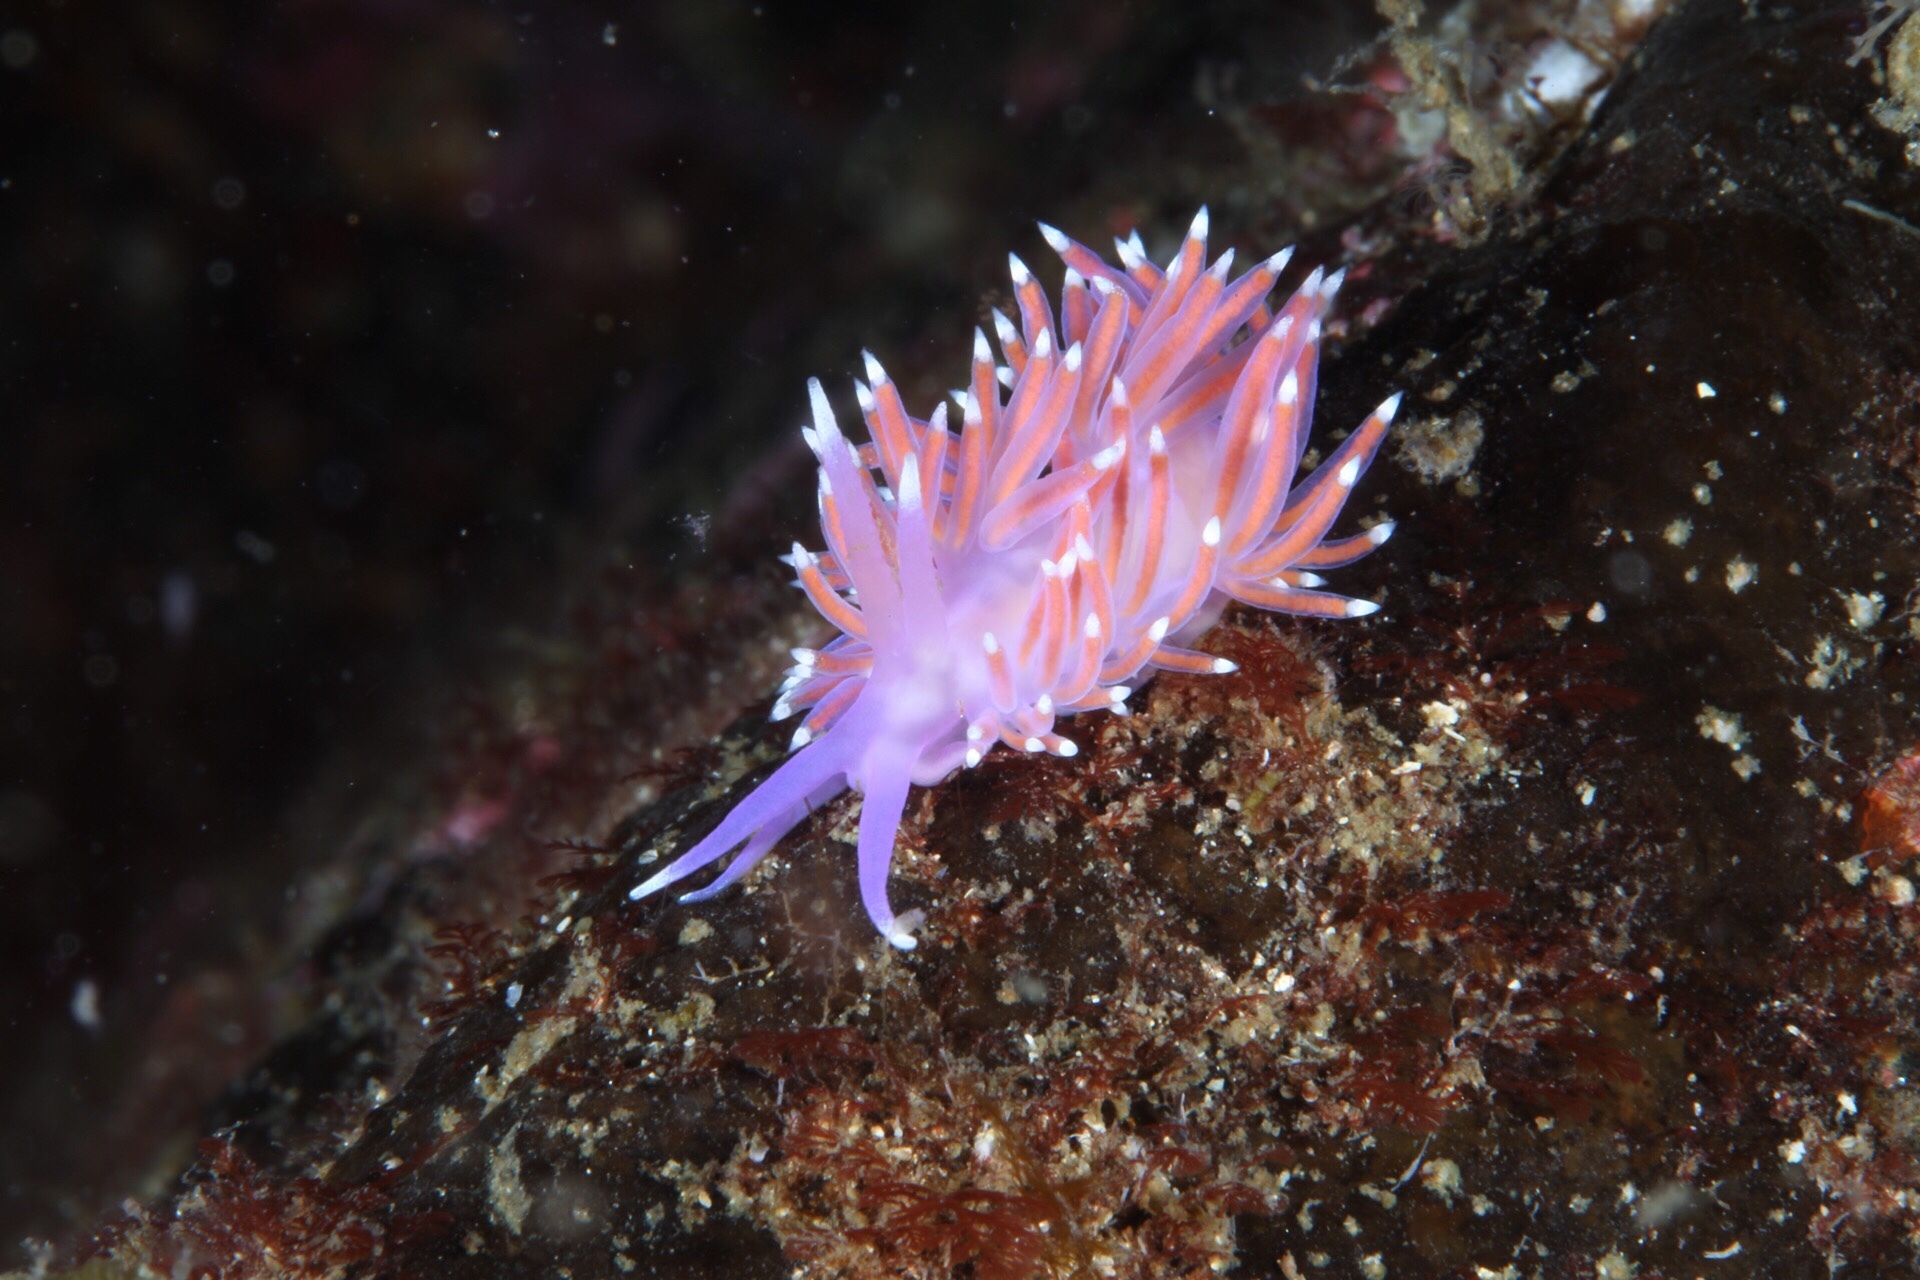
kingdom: Animalia
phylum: Mollusca
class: Gastropoda
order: Nudibranchia
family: Flabellinidae
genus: Edmundsella
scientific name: Edmundsella pedata
